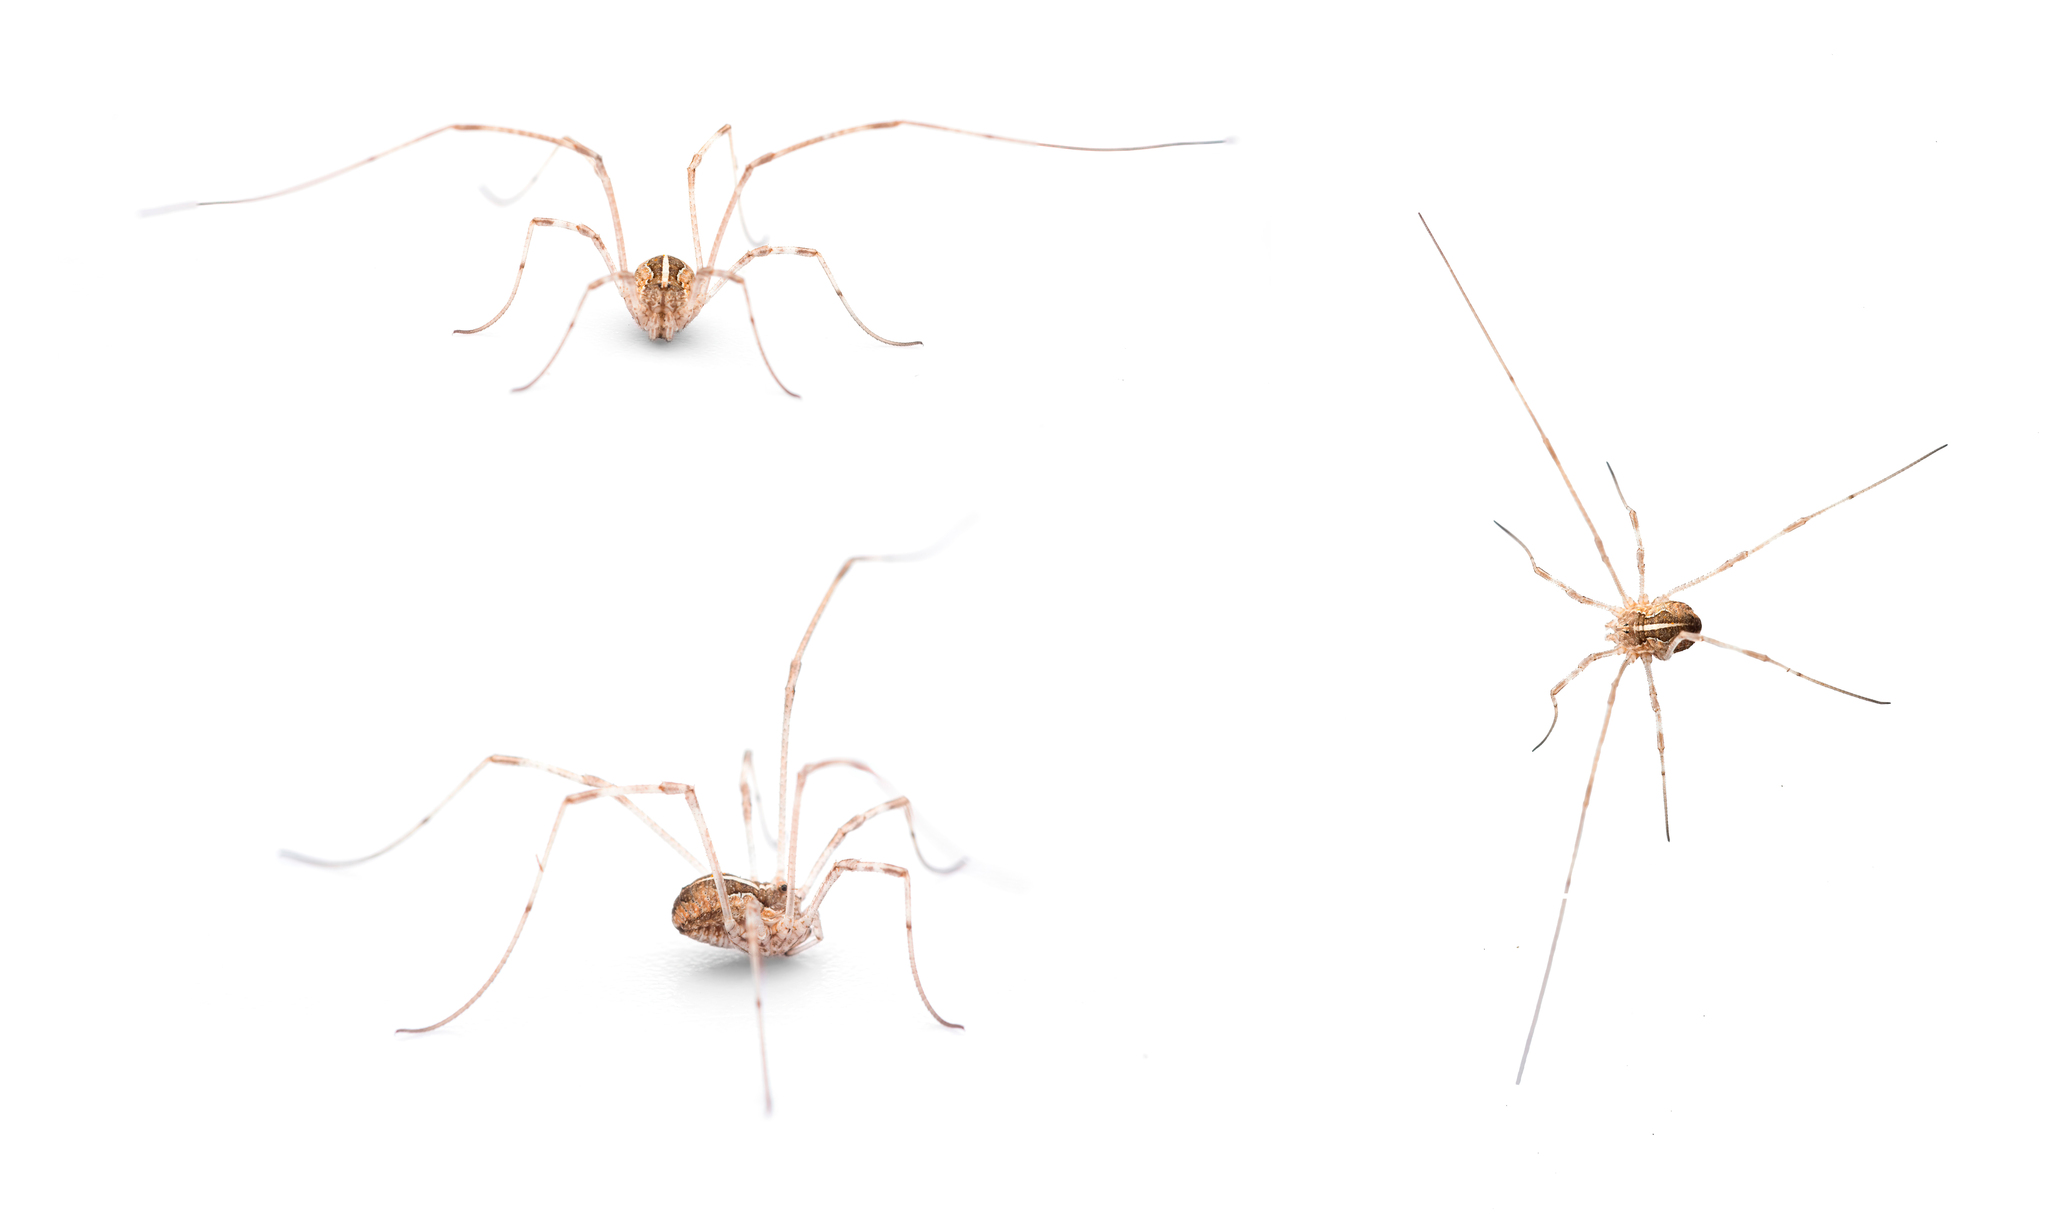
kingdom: Animalia
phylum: Arthropoda
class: Arachnida
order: Opiliones
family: Phalangiidae
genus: Metaphalangium
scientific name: Metaphalangium cirtanum
